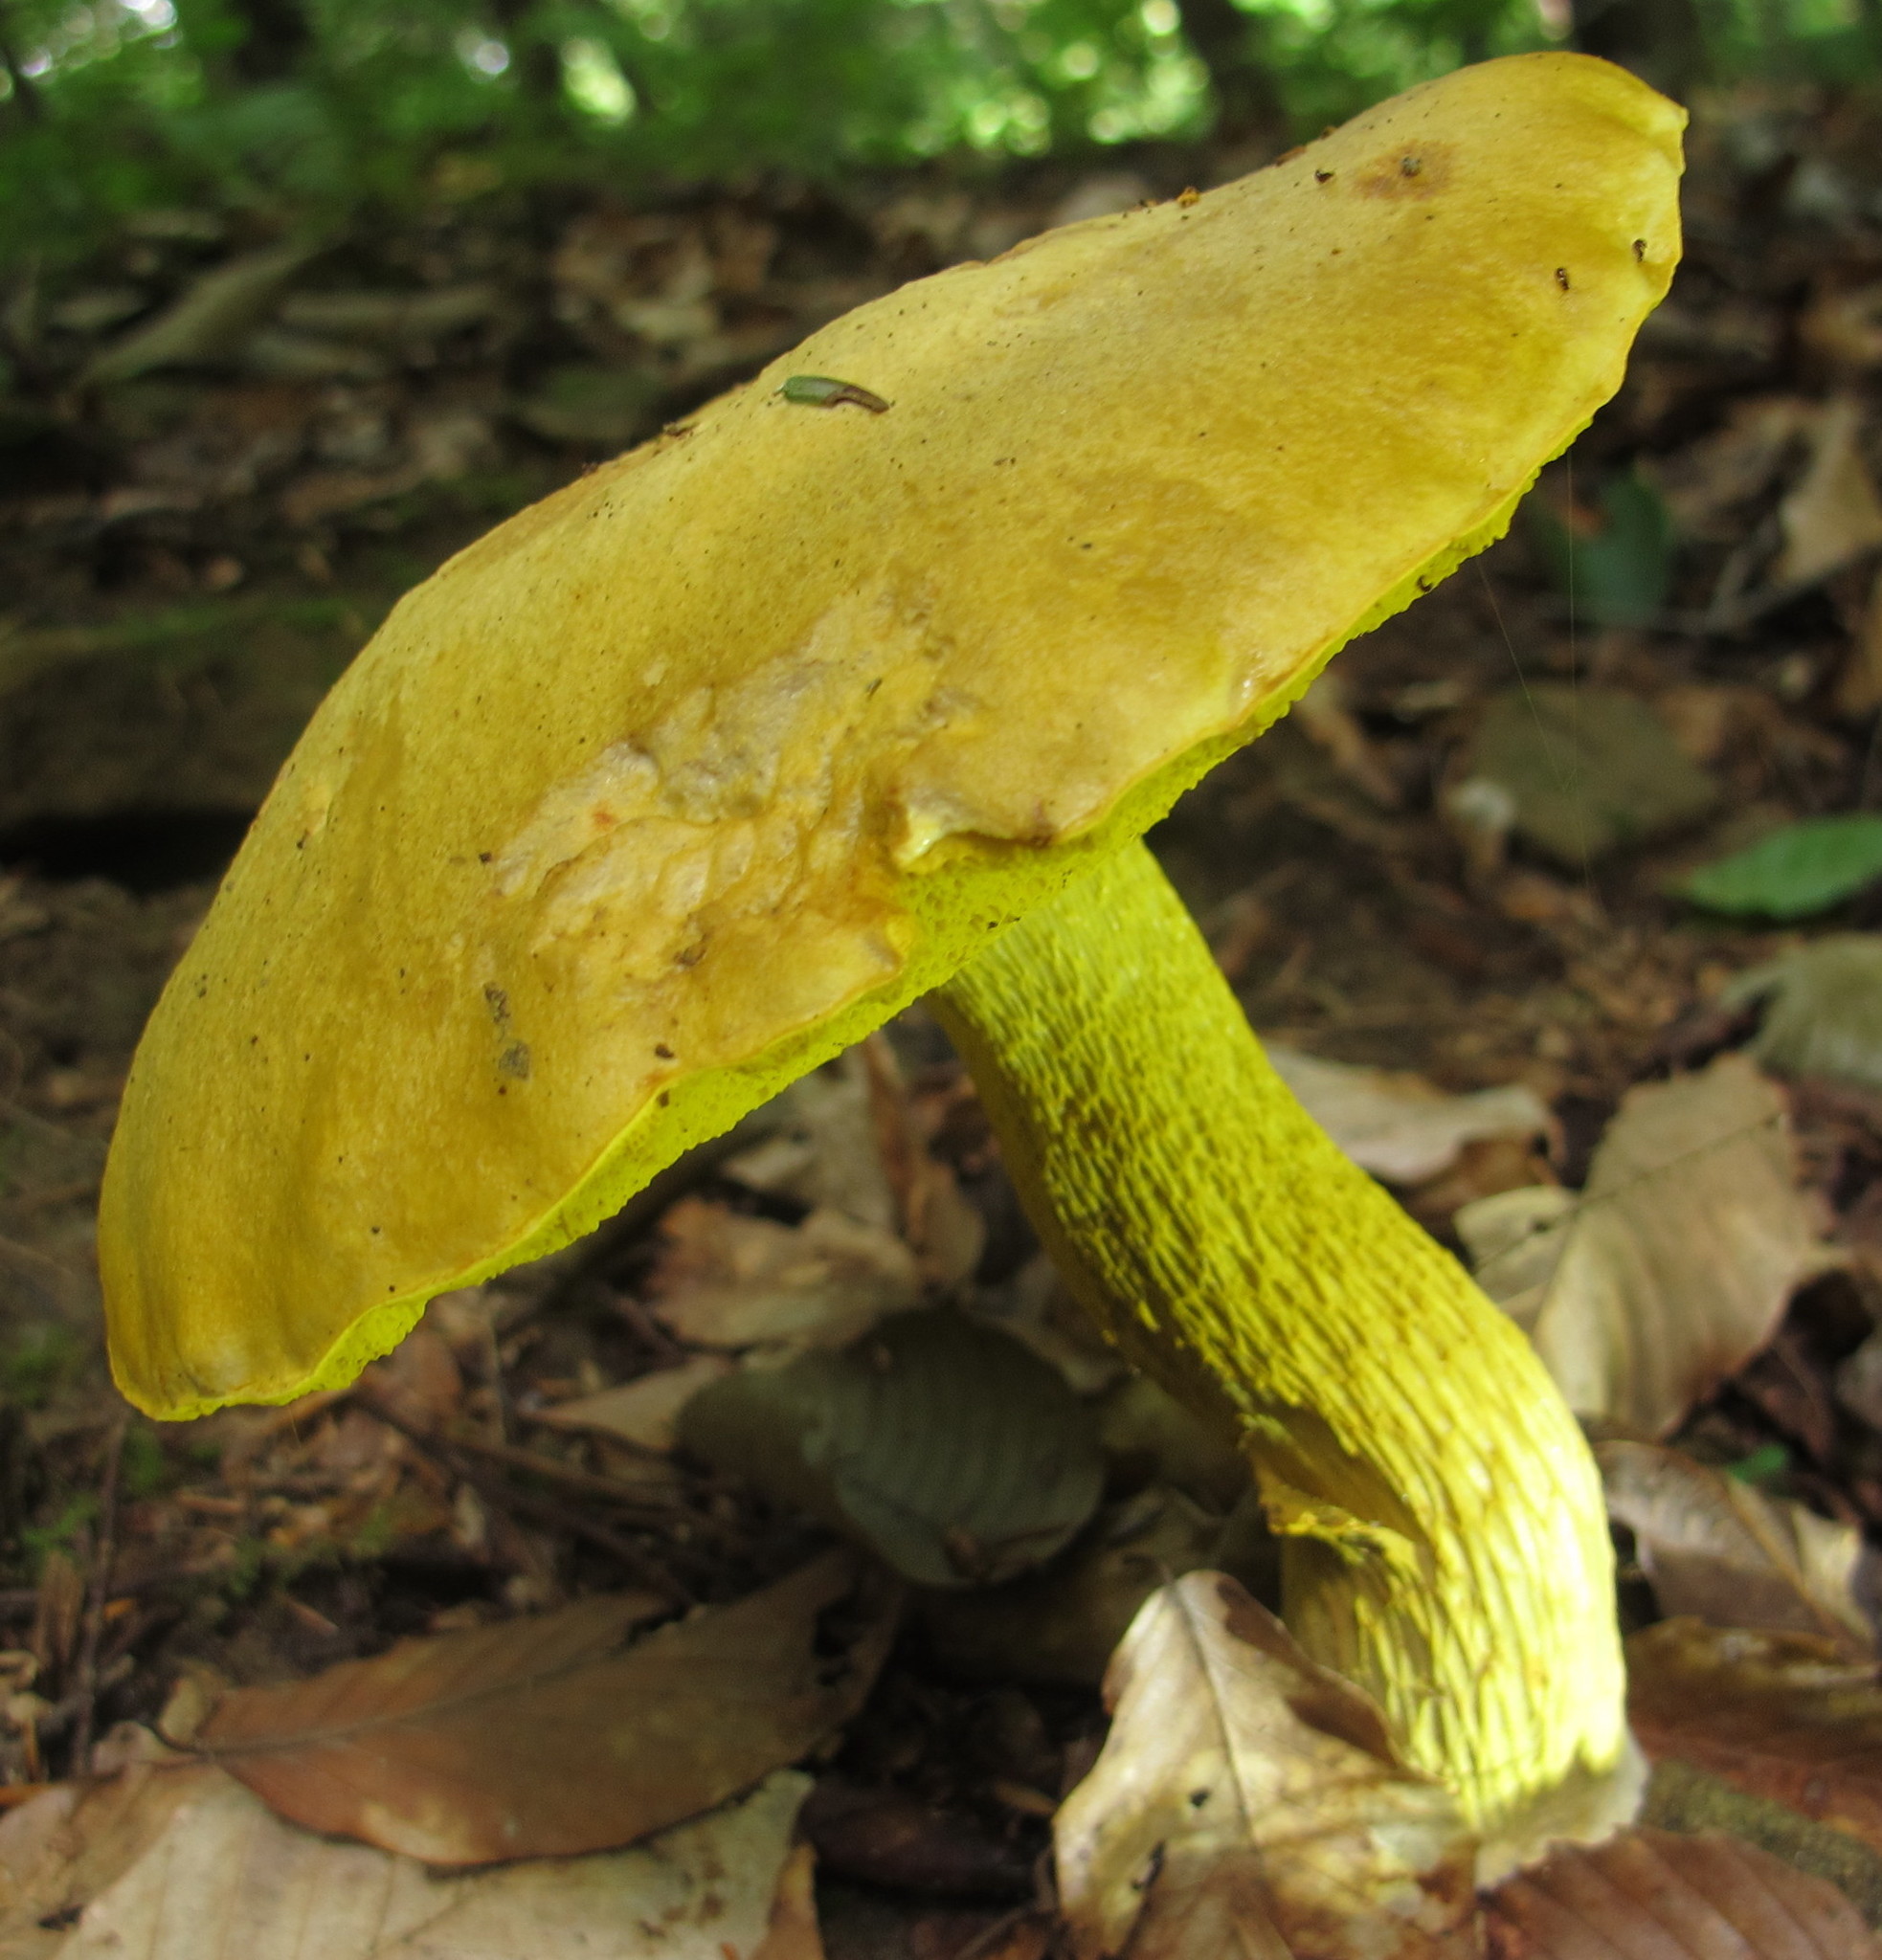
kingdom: Fungi
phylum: Basidiomycota
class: Agaricomycetes
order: Boletales
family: Boletaceae
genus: Retiboletus
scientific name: Retiboletus ornatipes
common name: Ornate-stalked bolete
